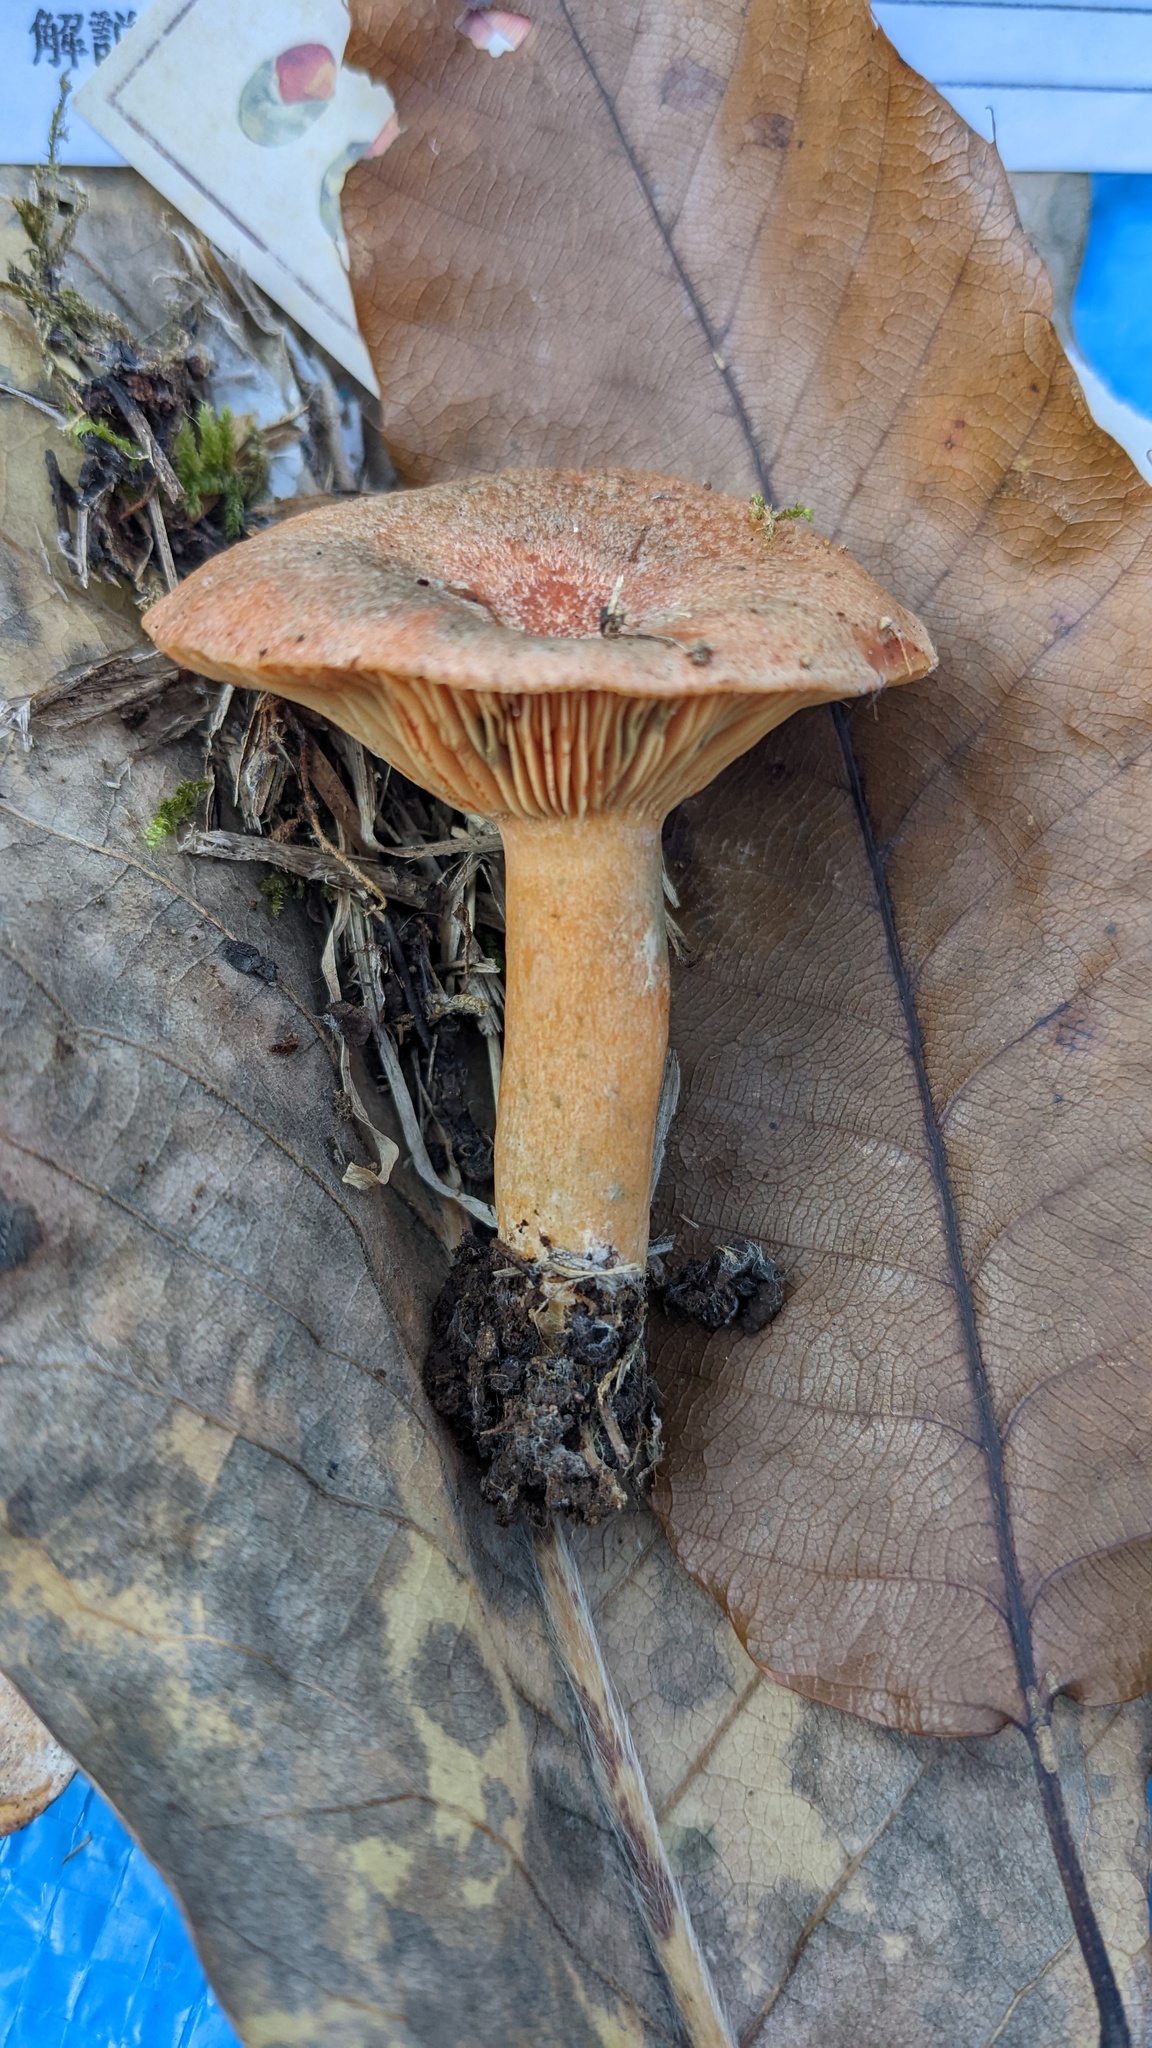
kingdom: Fungi
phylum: Basidiomycota
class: Agaricomycetes
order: Russulales
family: Russulaceae
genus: Lactarius
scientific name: Lactarius hatsudake
